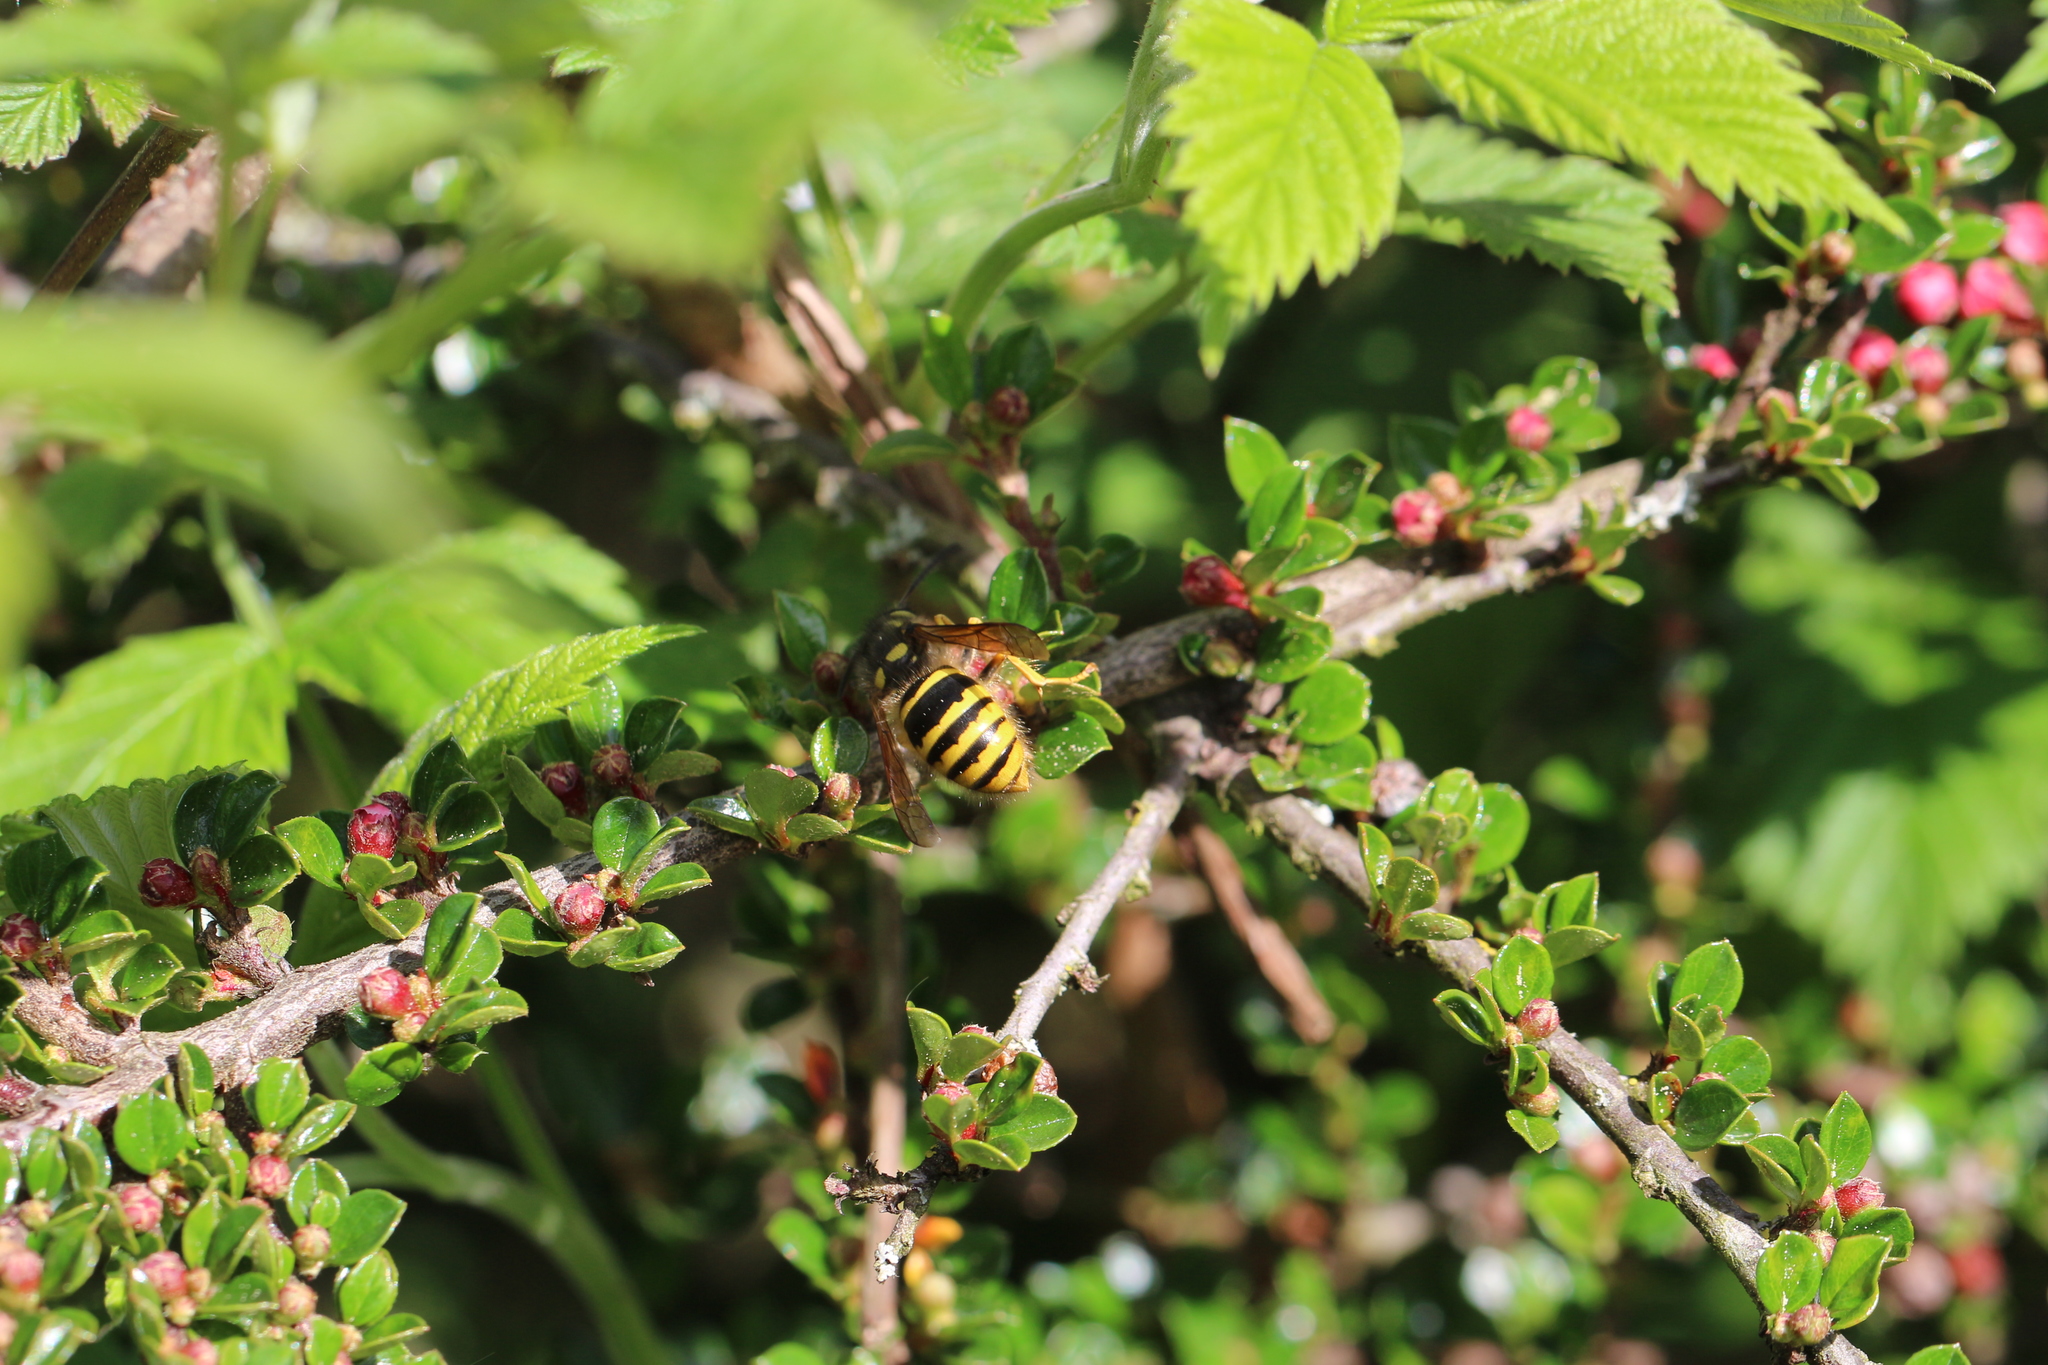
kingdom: Animalia
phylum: Arthropoda
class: Insecta
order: Hymenoptera
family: Vespidae
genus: Dolichovespula
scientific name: Dolichovespula sylvestris
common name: Tree wasp
